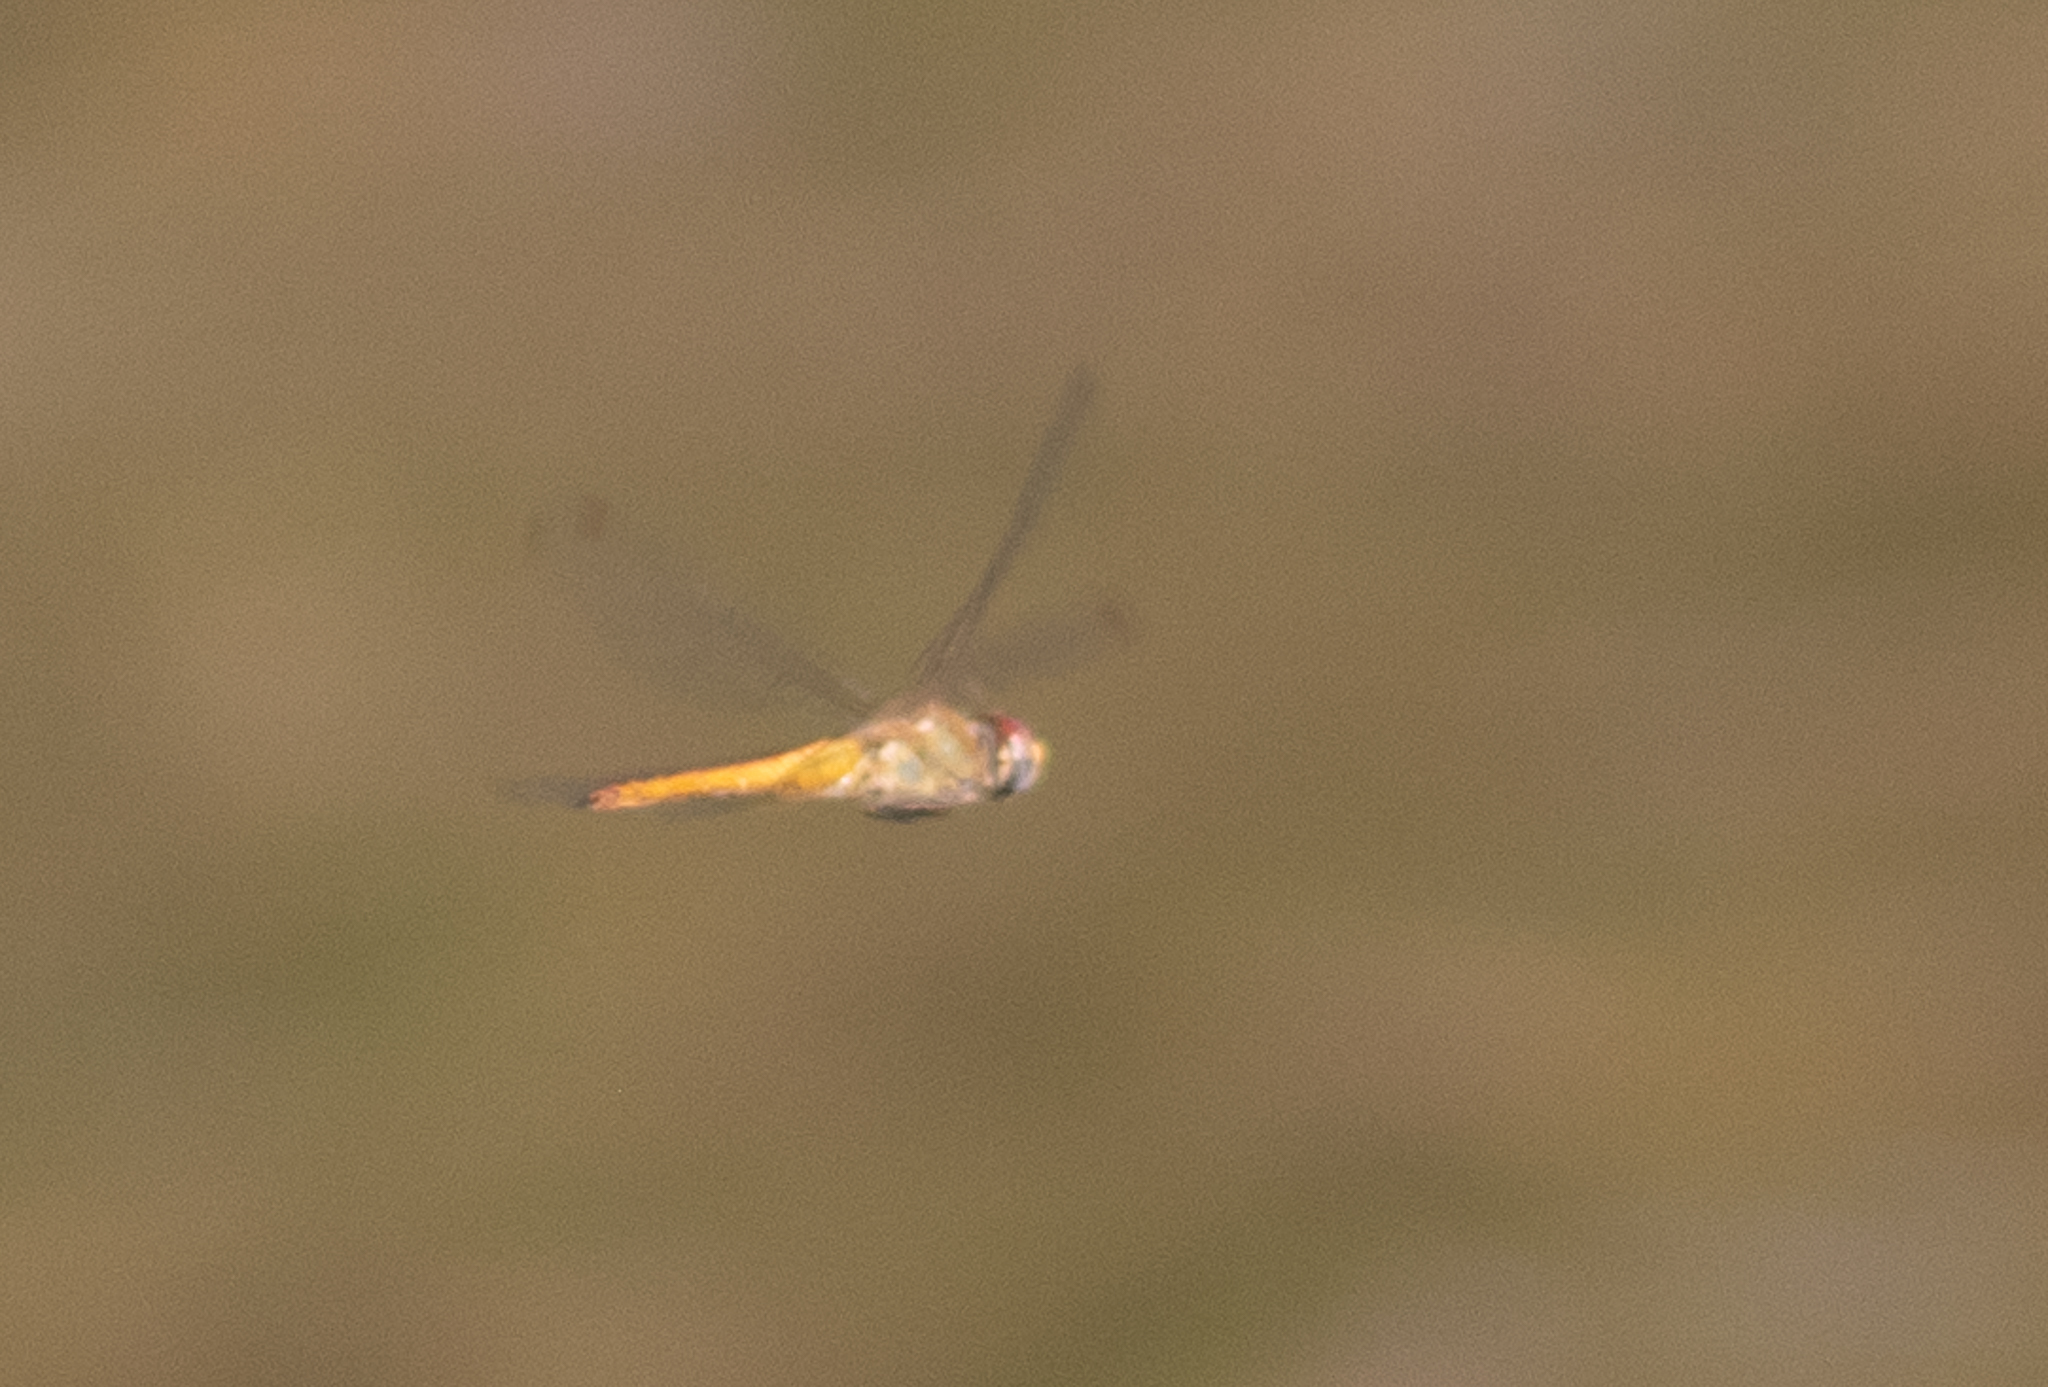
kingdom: Animalia
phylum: Arthropoda
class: Insecta
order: Odonata
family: Libellulidae
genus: Pantala
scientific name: Pantala flavescens
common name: Wandering glider
